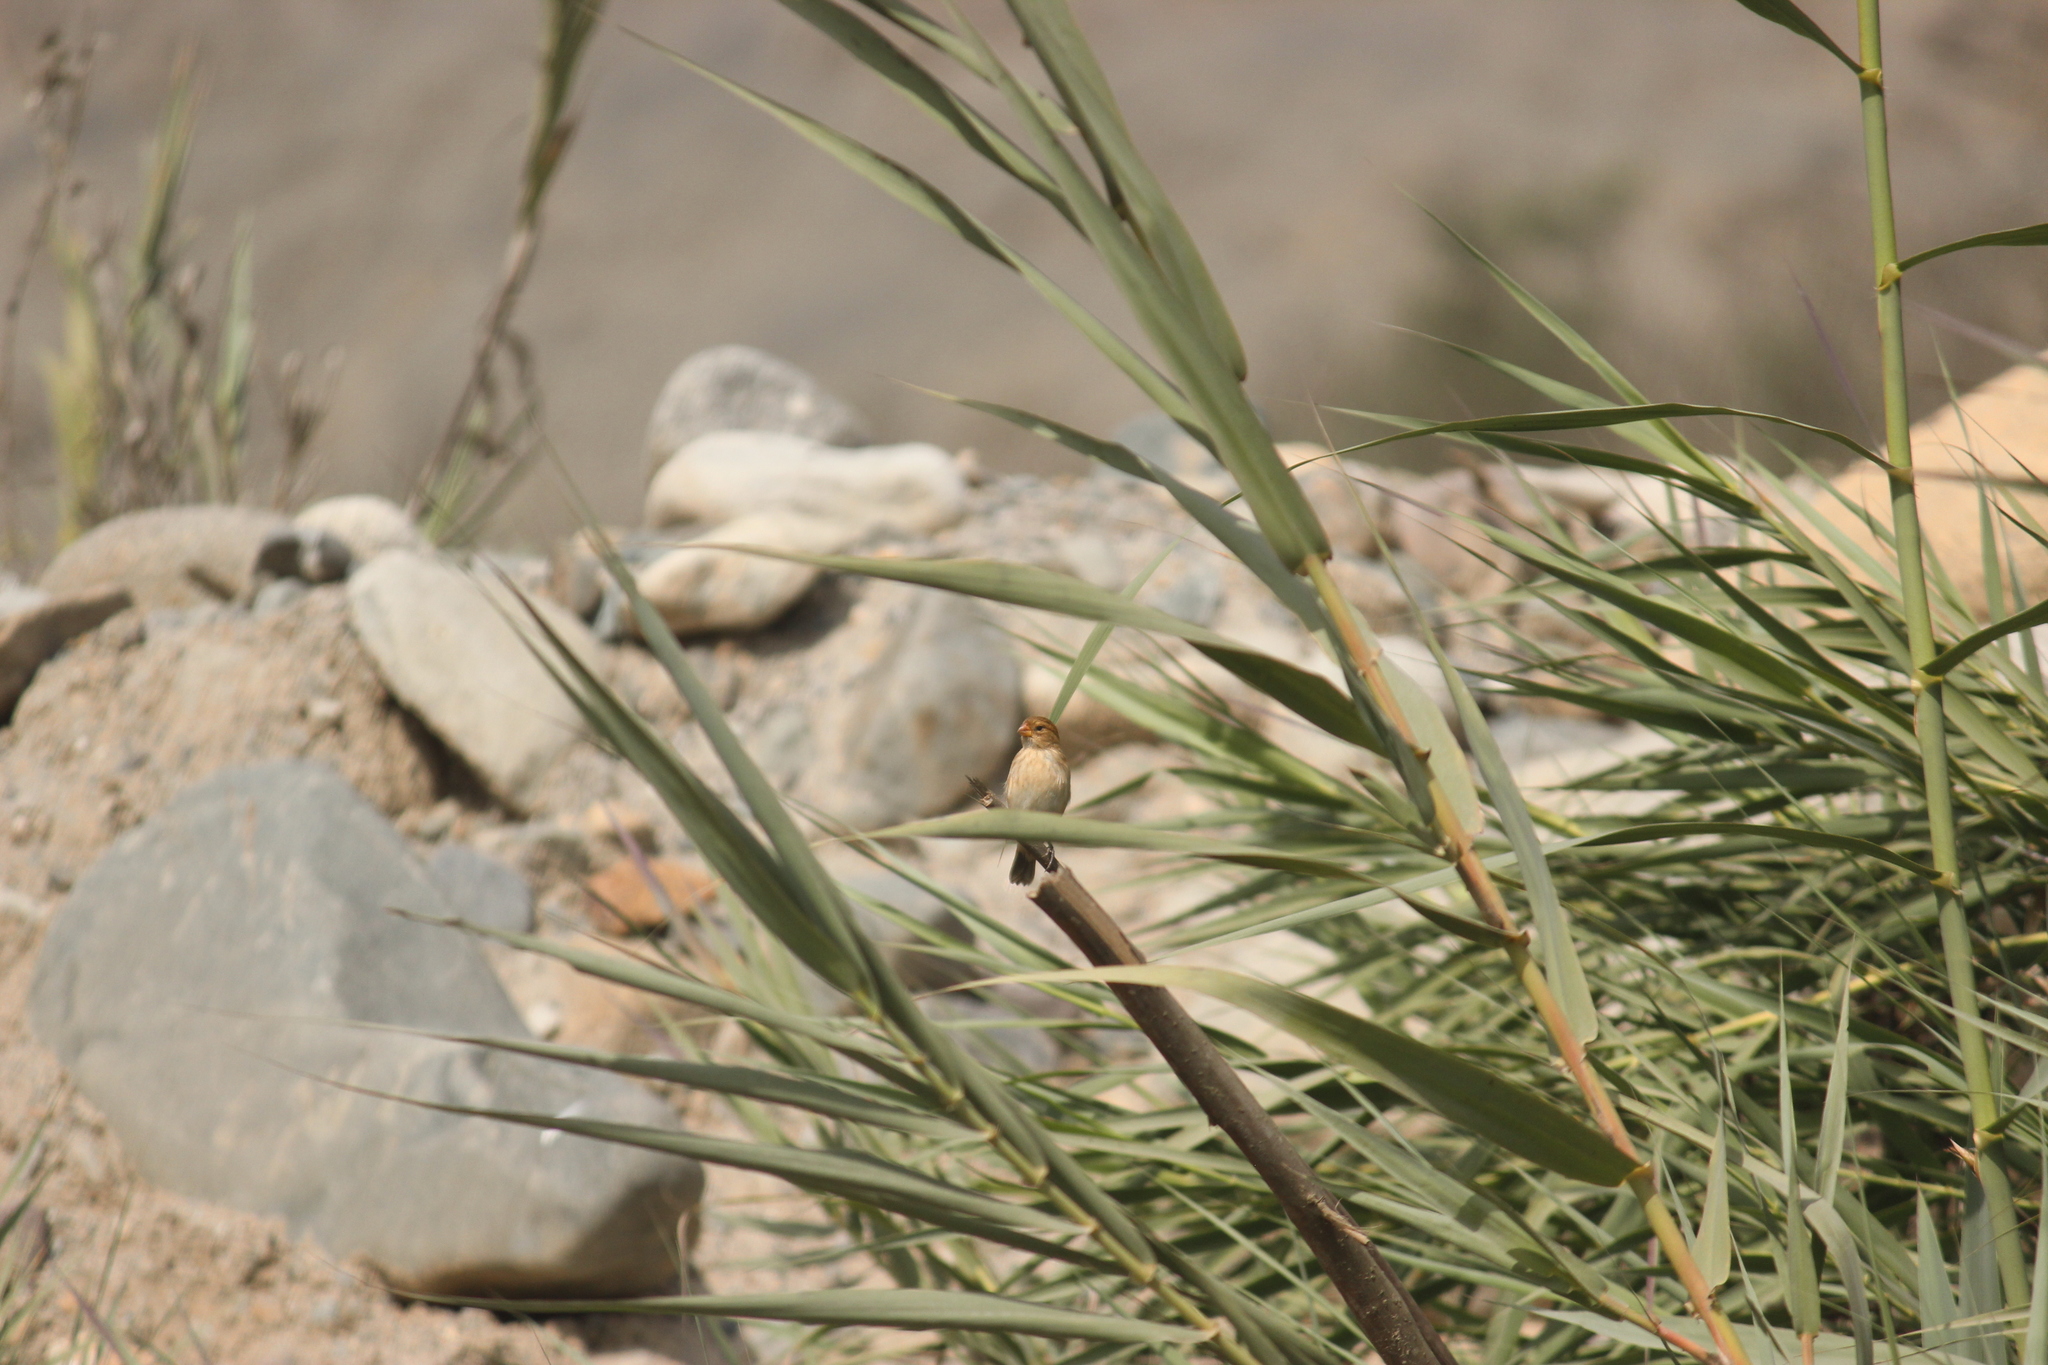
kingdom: Animalia
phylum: Chordata
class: Aves
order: Passeriformes
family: Thraupidae
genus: Sporophila
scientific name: Sporophila telasco
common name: Chestnut-throated seedeater
